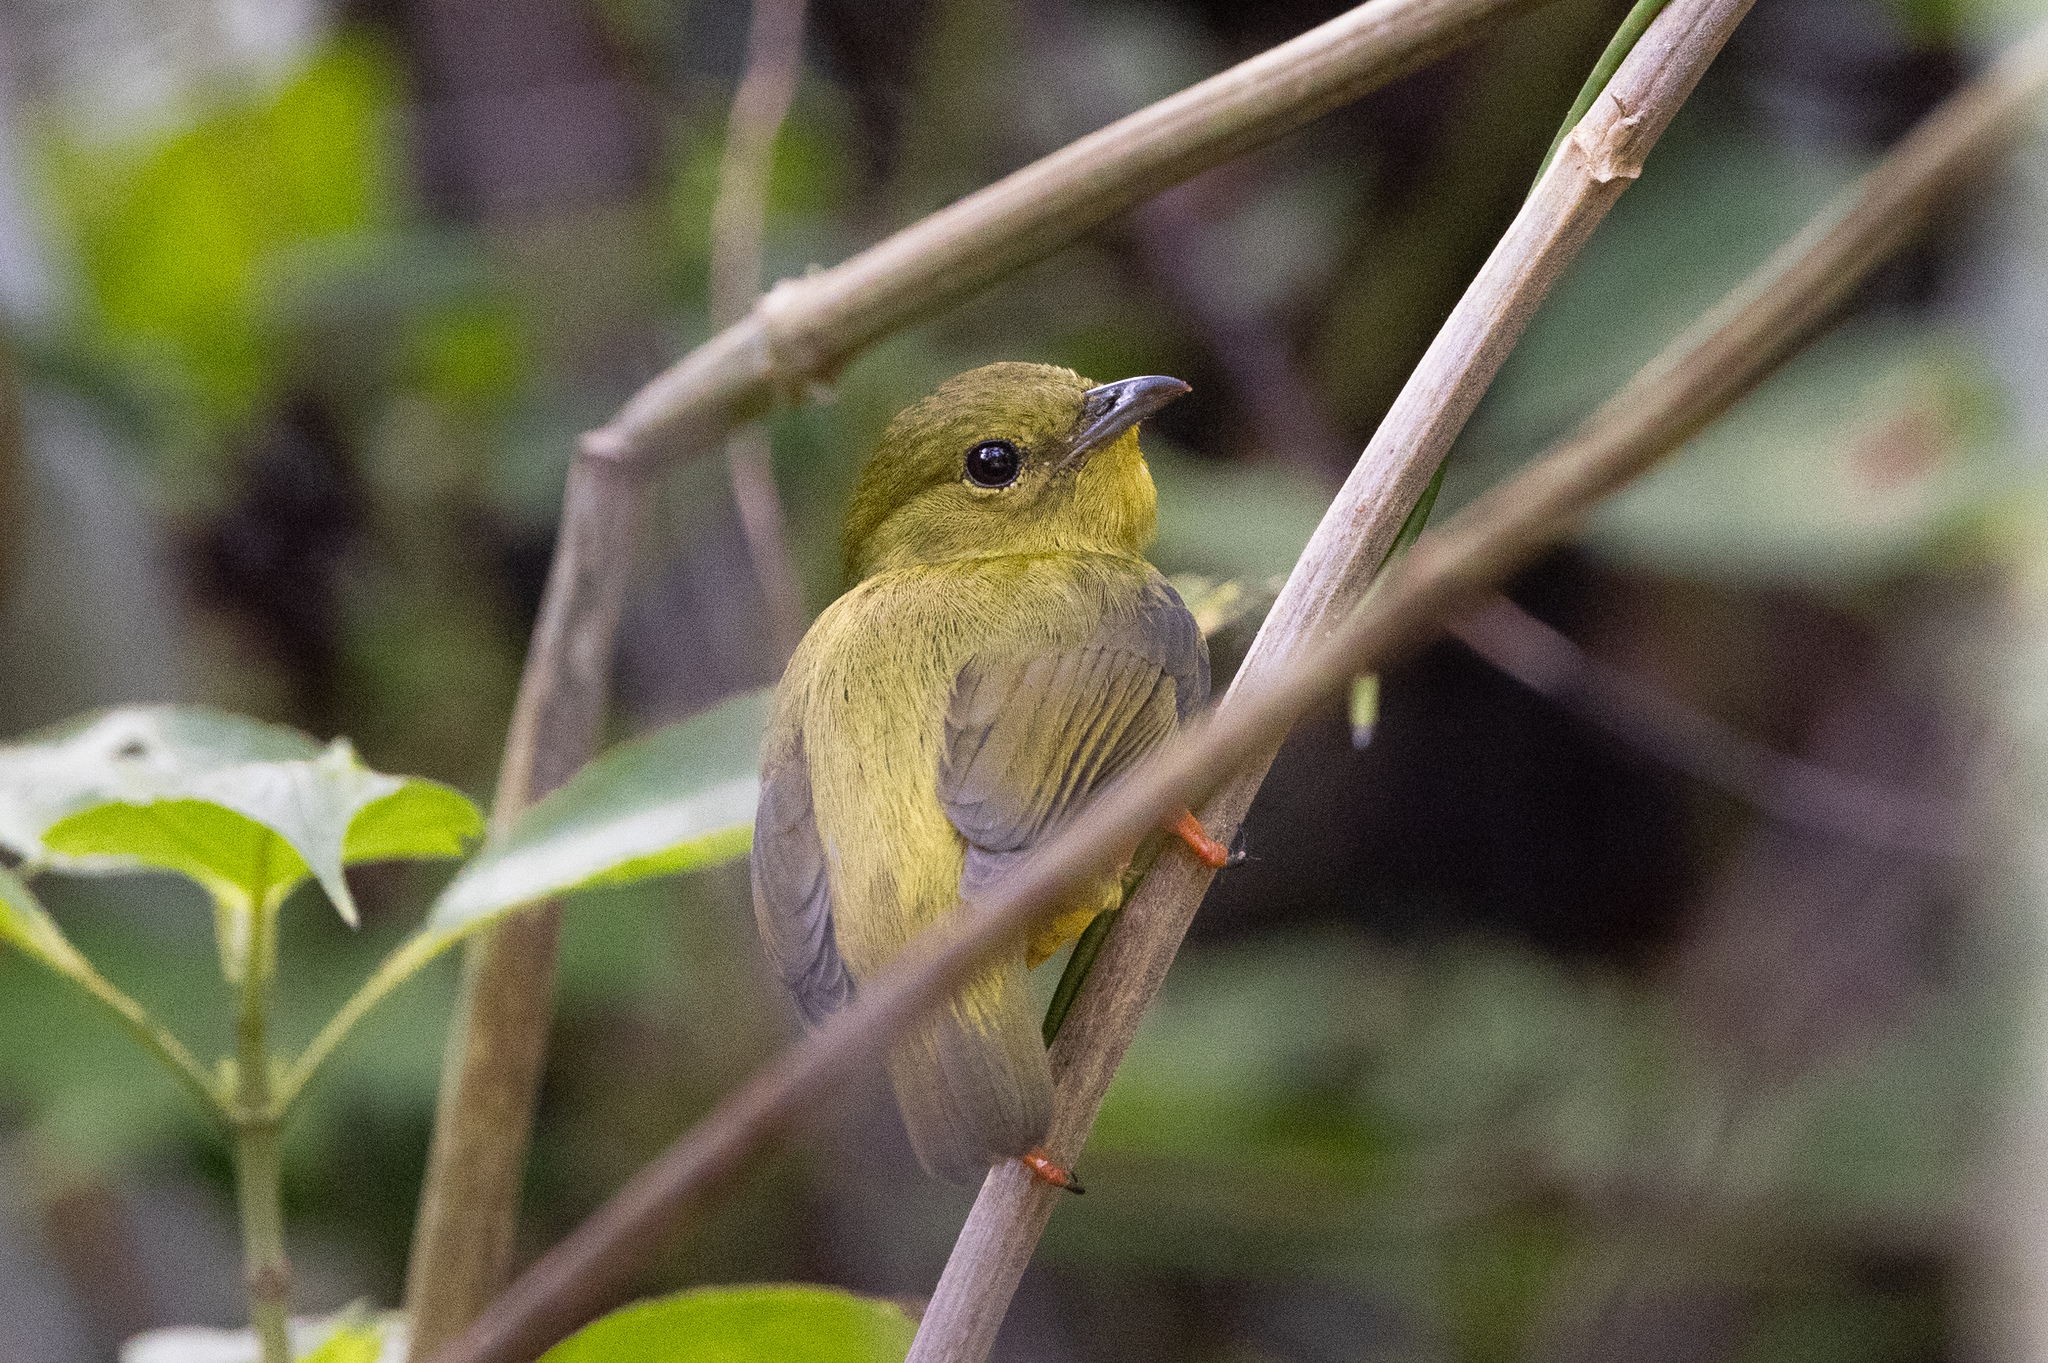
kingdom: Animalia
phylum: Chordata
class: Aves
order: Passeriformes
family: Pipridae
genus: Manacus
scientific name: Manacus vitellinus
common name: Golden-collared manakin
